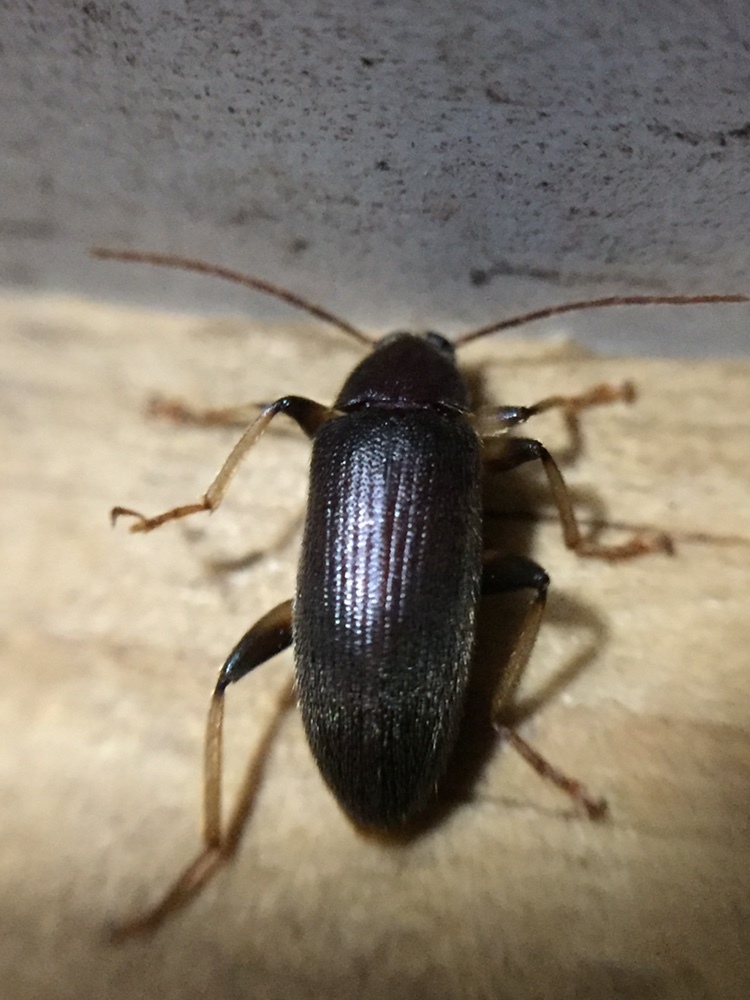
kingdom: Animalia
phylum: Arthropoda
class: Insecta
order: Coleoptera
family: Tenebrionidae
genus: Homotrysis
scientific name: Homotrysis
